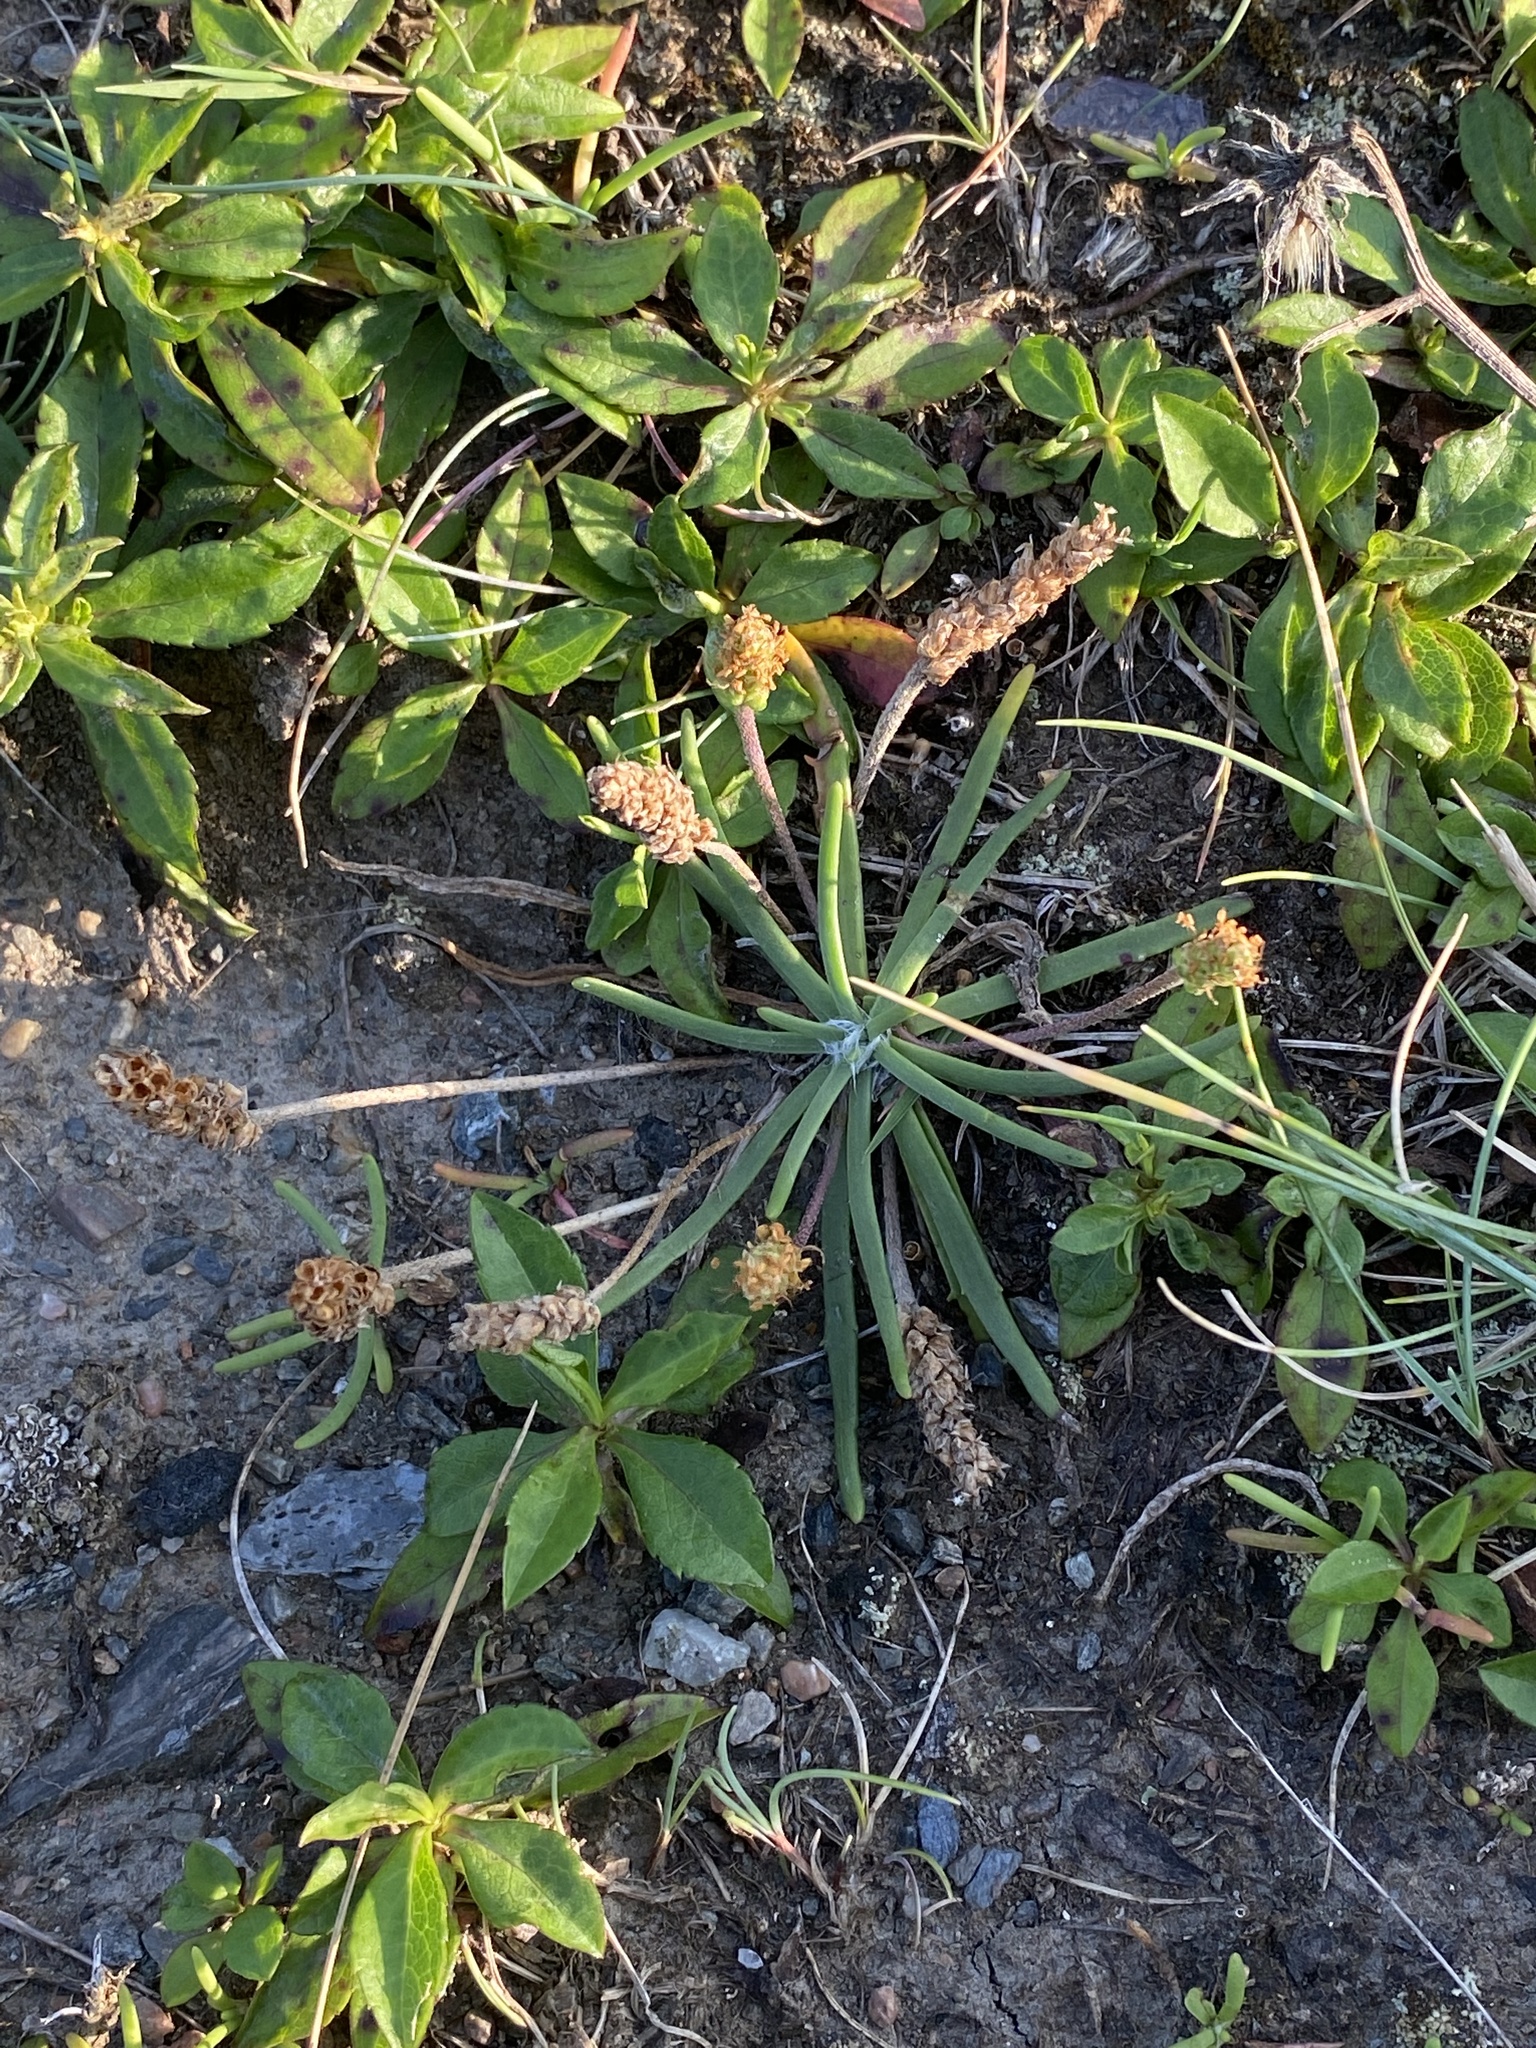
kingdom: Plantae
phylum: Tracheophyta
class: Magnoliopsida
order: Lamiales
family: Plantaginaceae
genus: Plantago
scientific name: Plantago maritima
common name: Sea plantain
